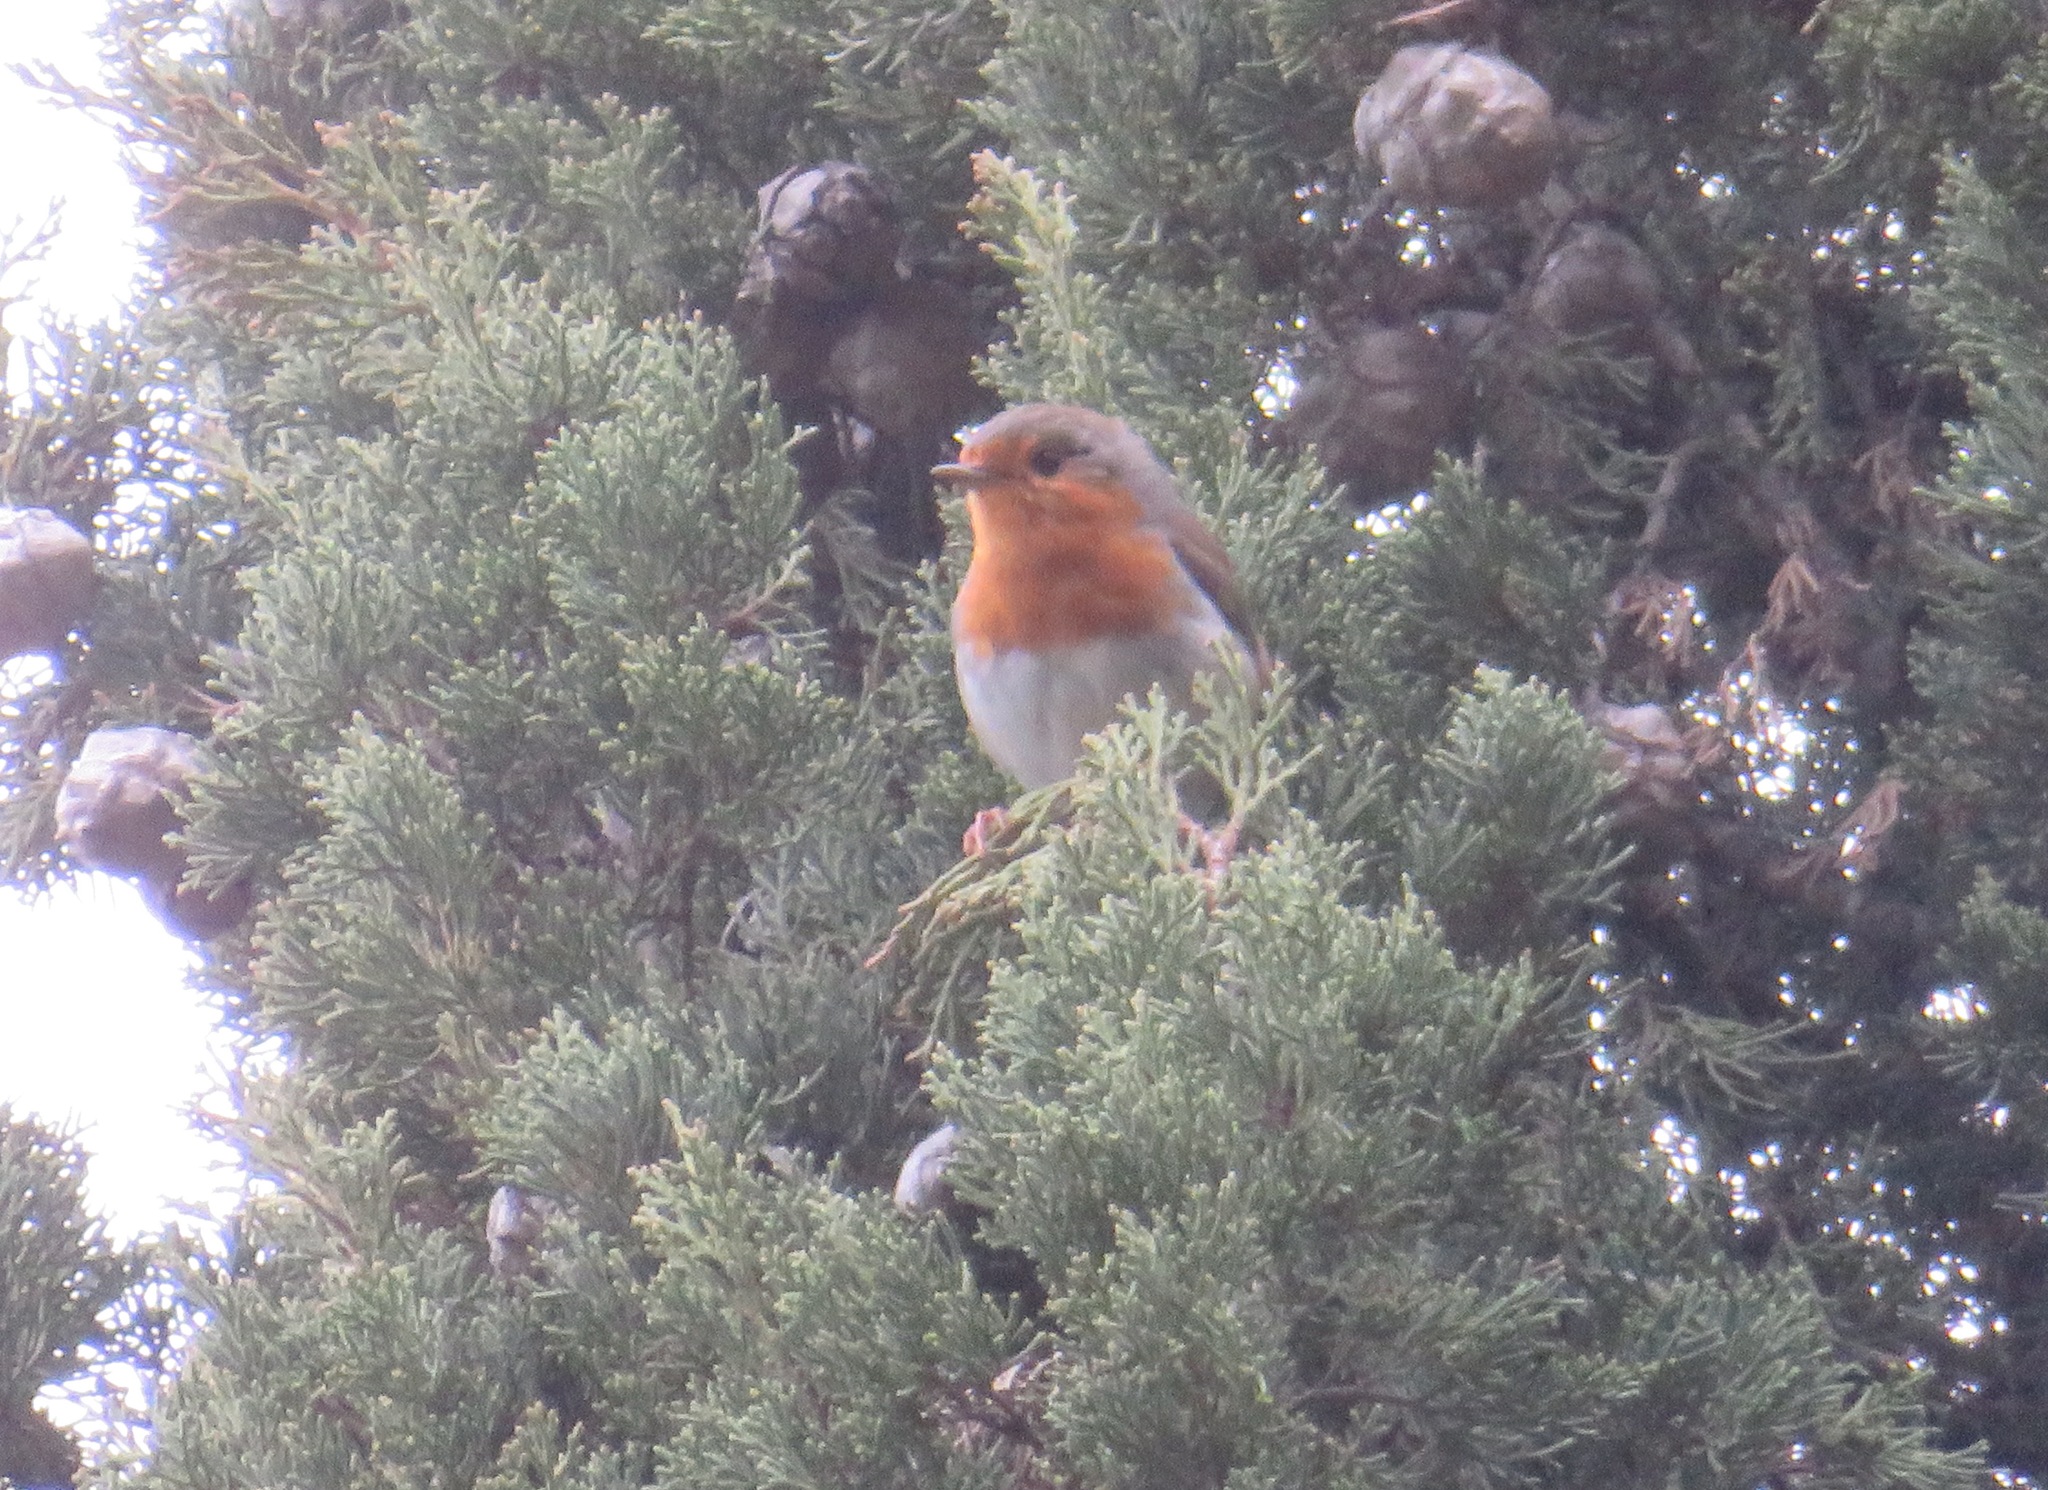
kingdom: Animalia
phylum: Chordata
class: Aves
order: Passeriformes
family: Muscicapidae
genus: Erithacus
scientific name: Erithacus rubecula
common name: European robin
